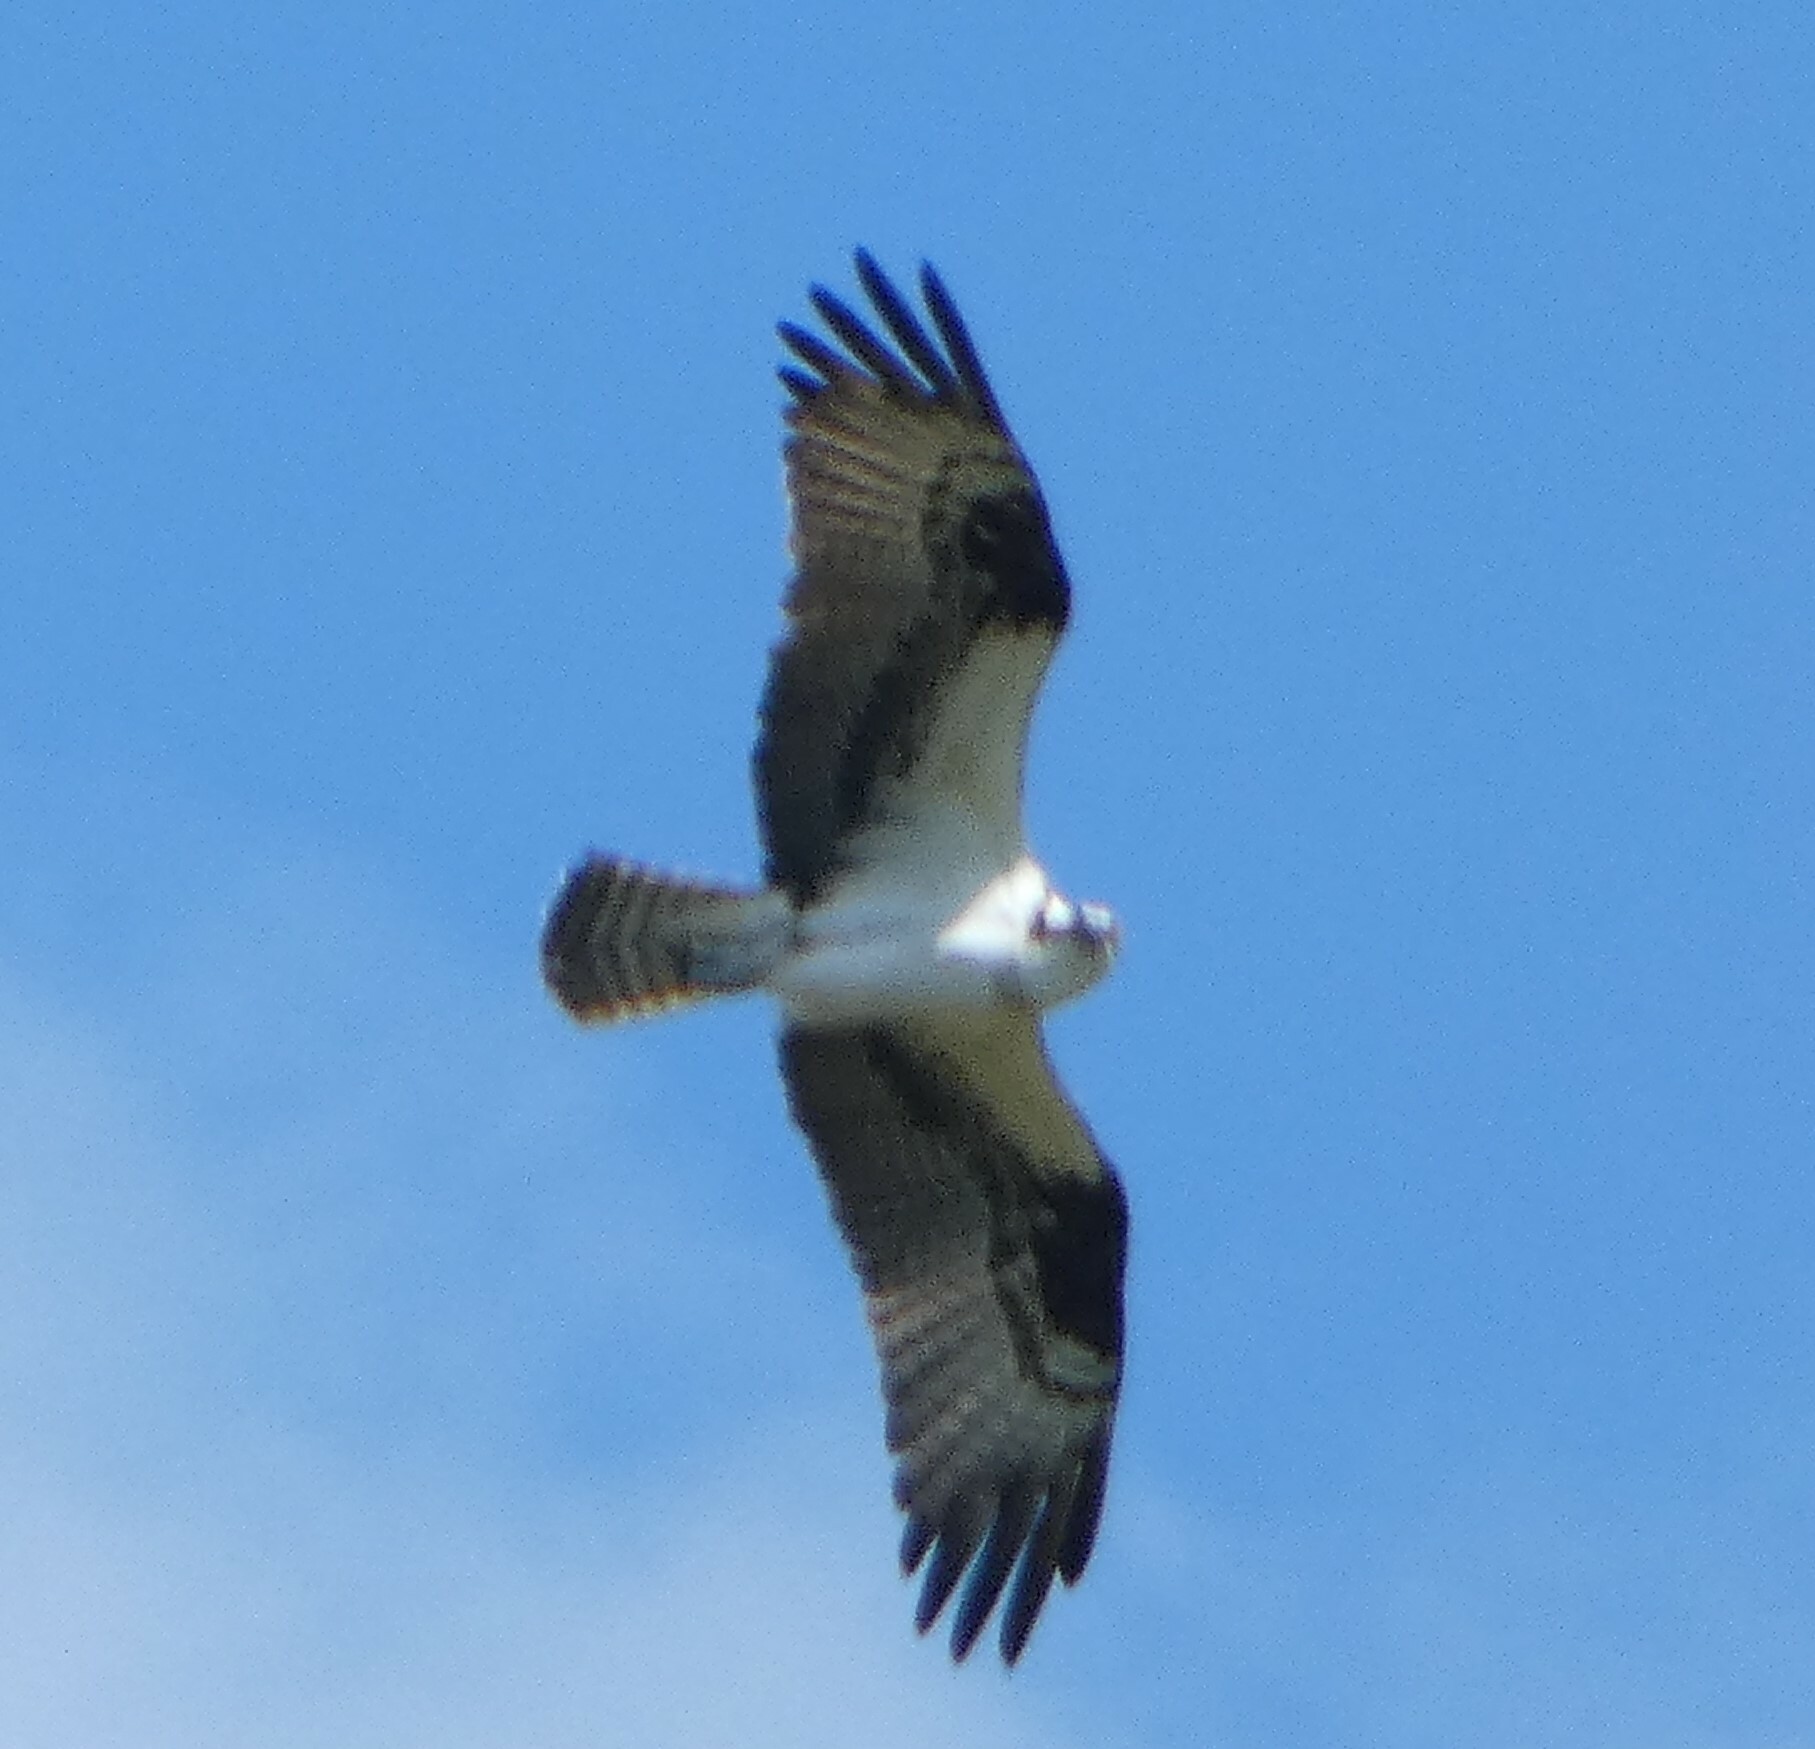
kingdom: Animalia
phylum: Chordata
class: Aves
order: Accipitriformes
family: Pandionidae
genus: Pandion
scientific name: Pandion haliaetus
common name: Osprey
